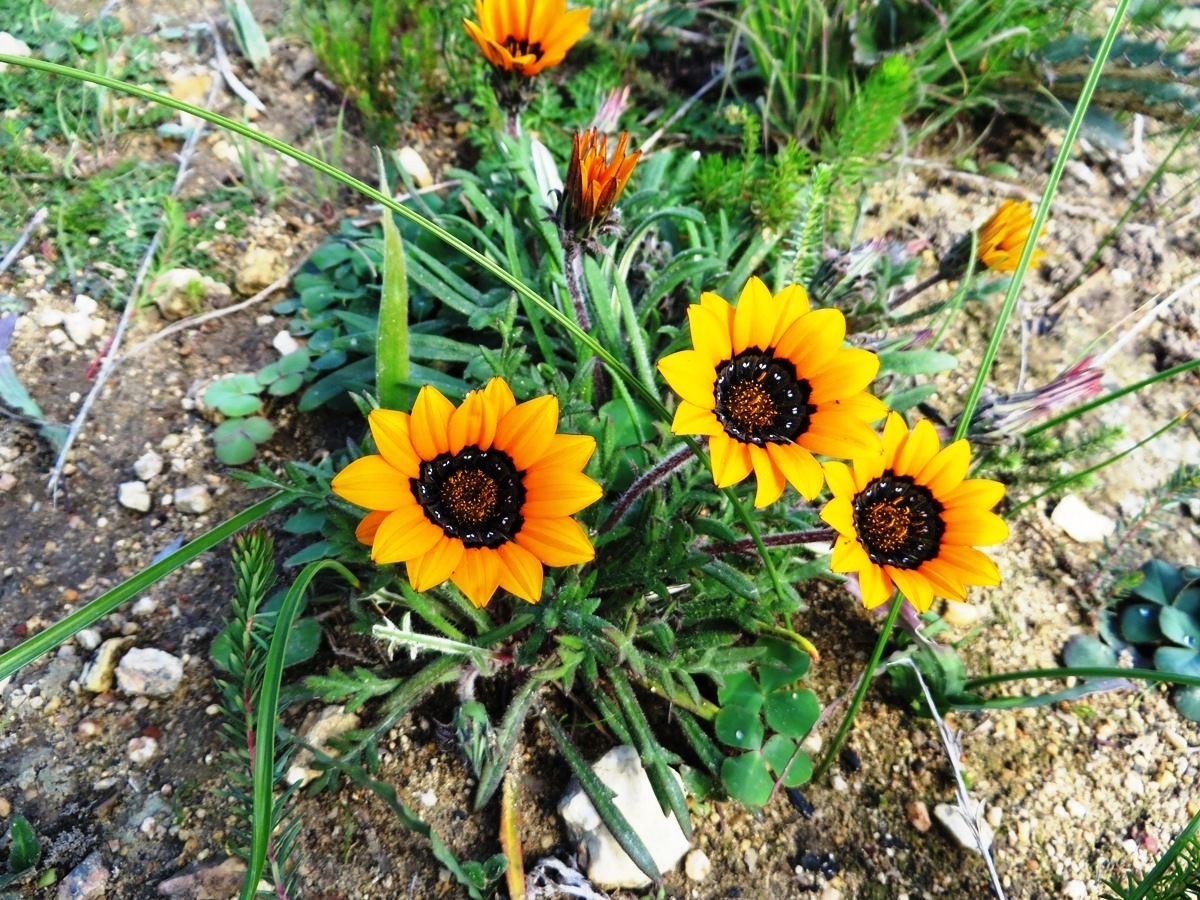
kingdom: Plantae
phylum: Tracheophyta
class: Magnoliopsida
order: Asterales
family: Asteraceae
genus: Gazania
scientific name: Gazania ciliaris
